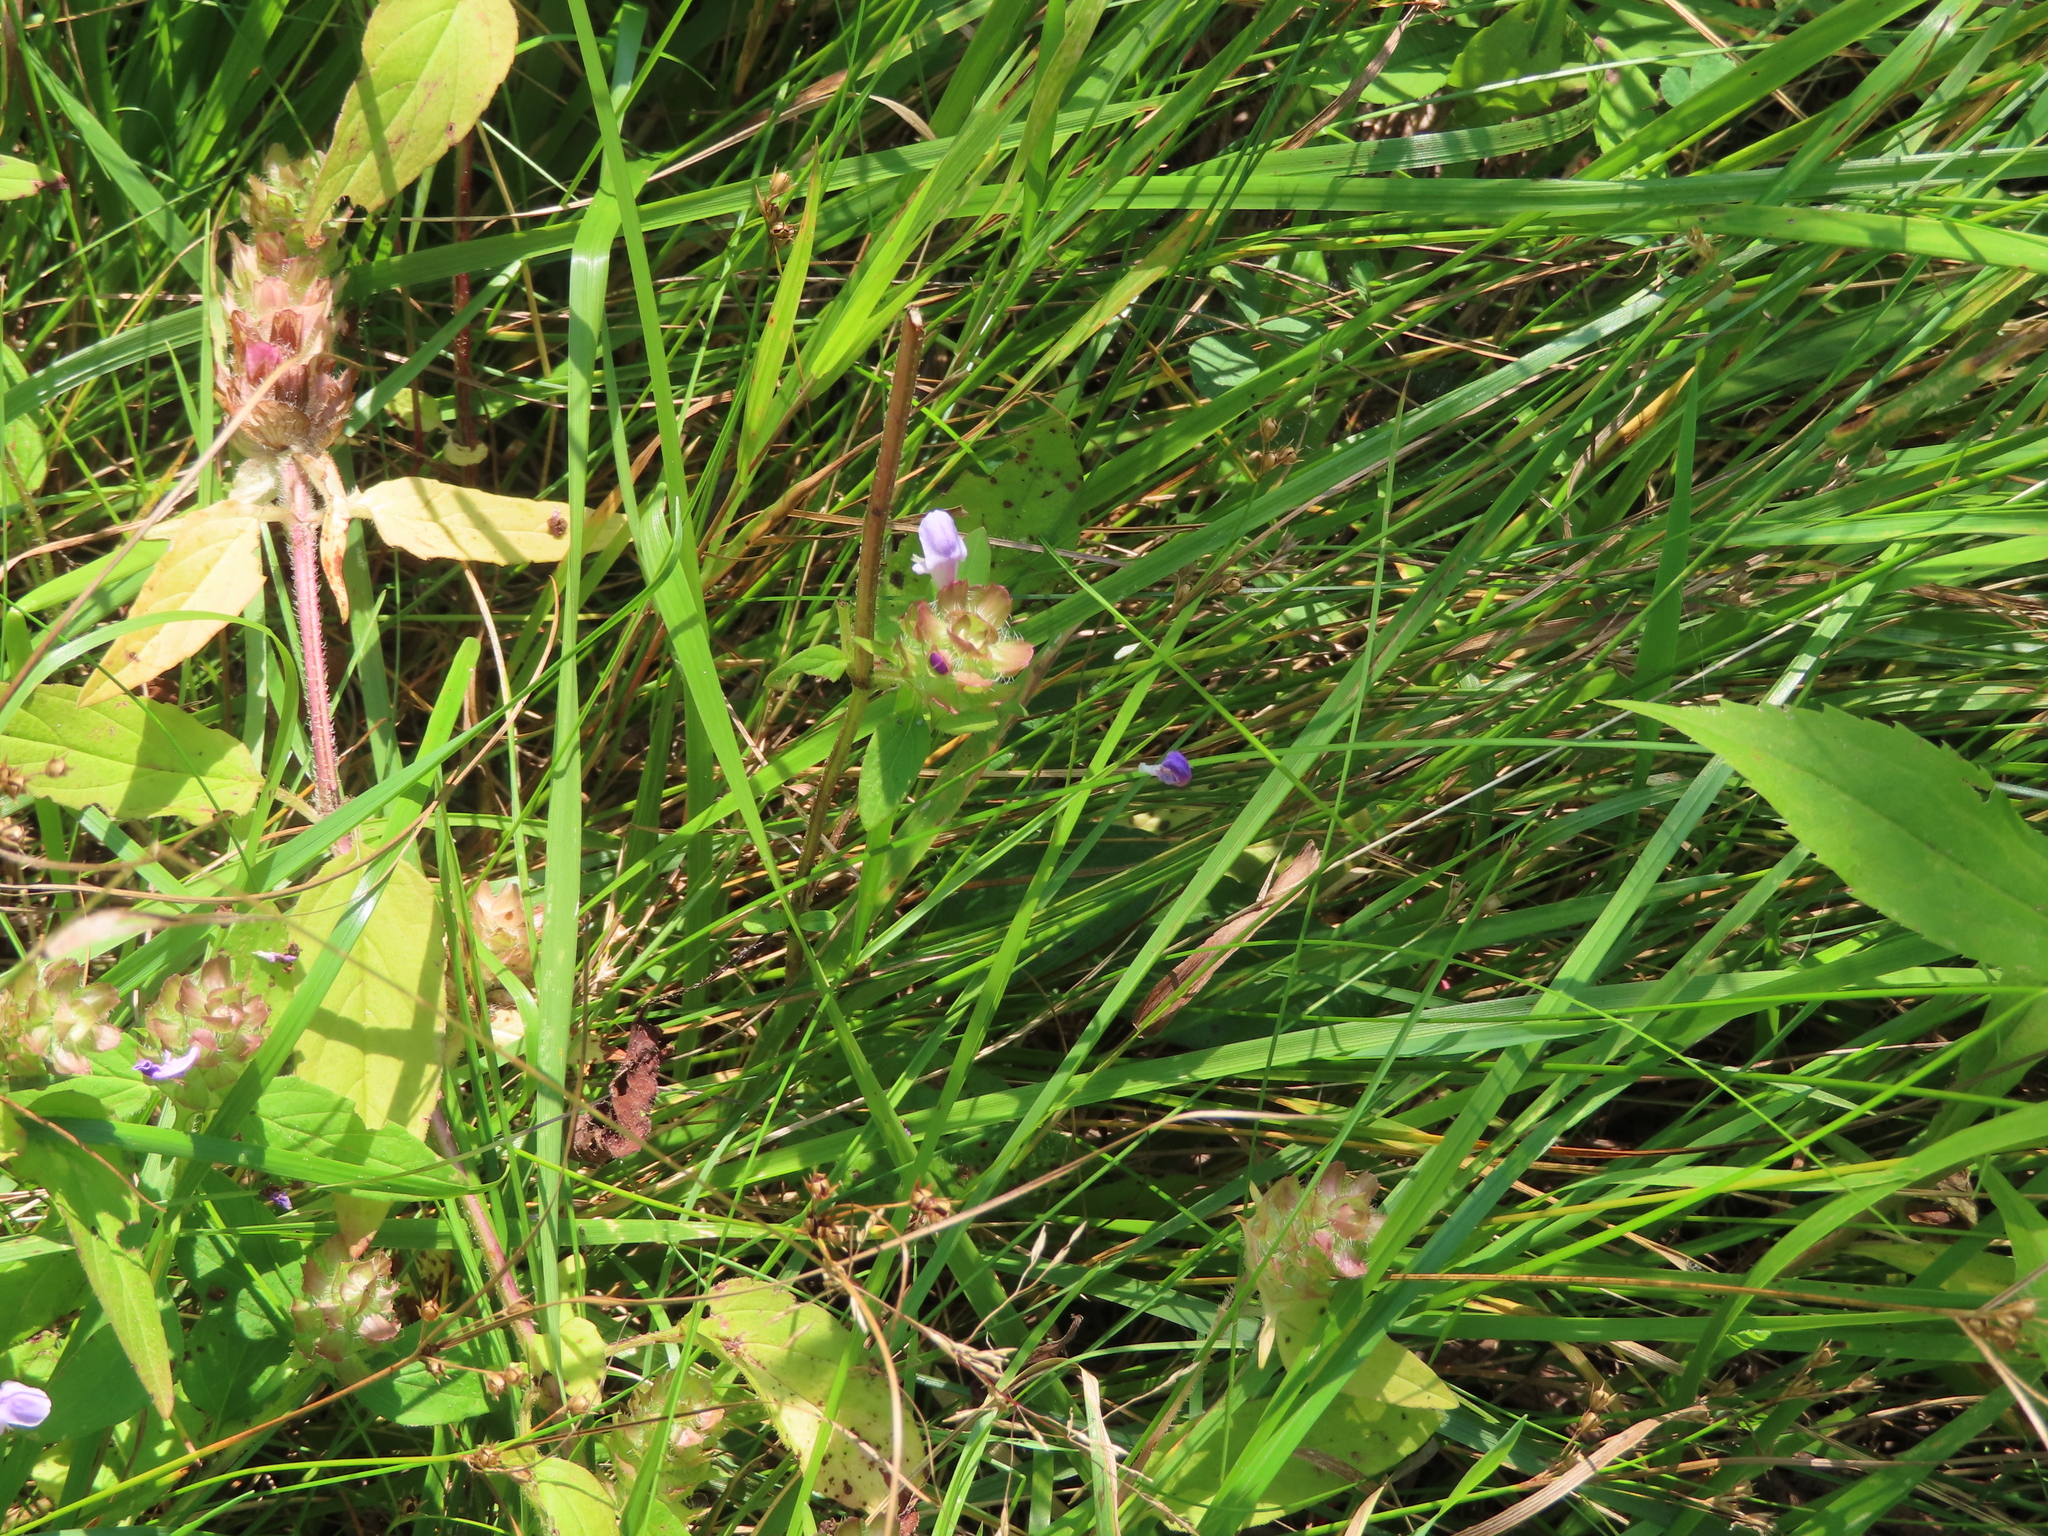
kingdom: Plantae
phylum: Tracheophyta
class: Magnoliopsida
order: Lamiales
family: Lamiaceae
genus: Prunella
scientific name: Prunella vulgaris
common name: Heal-all
